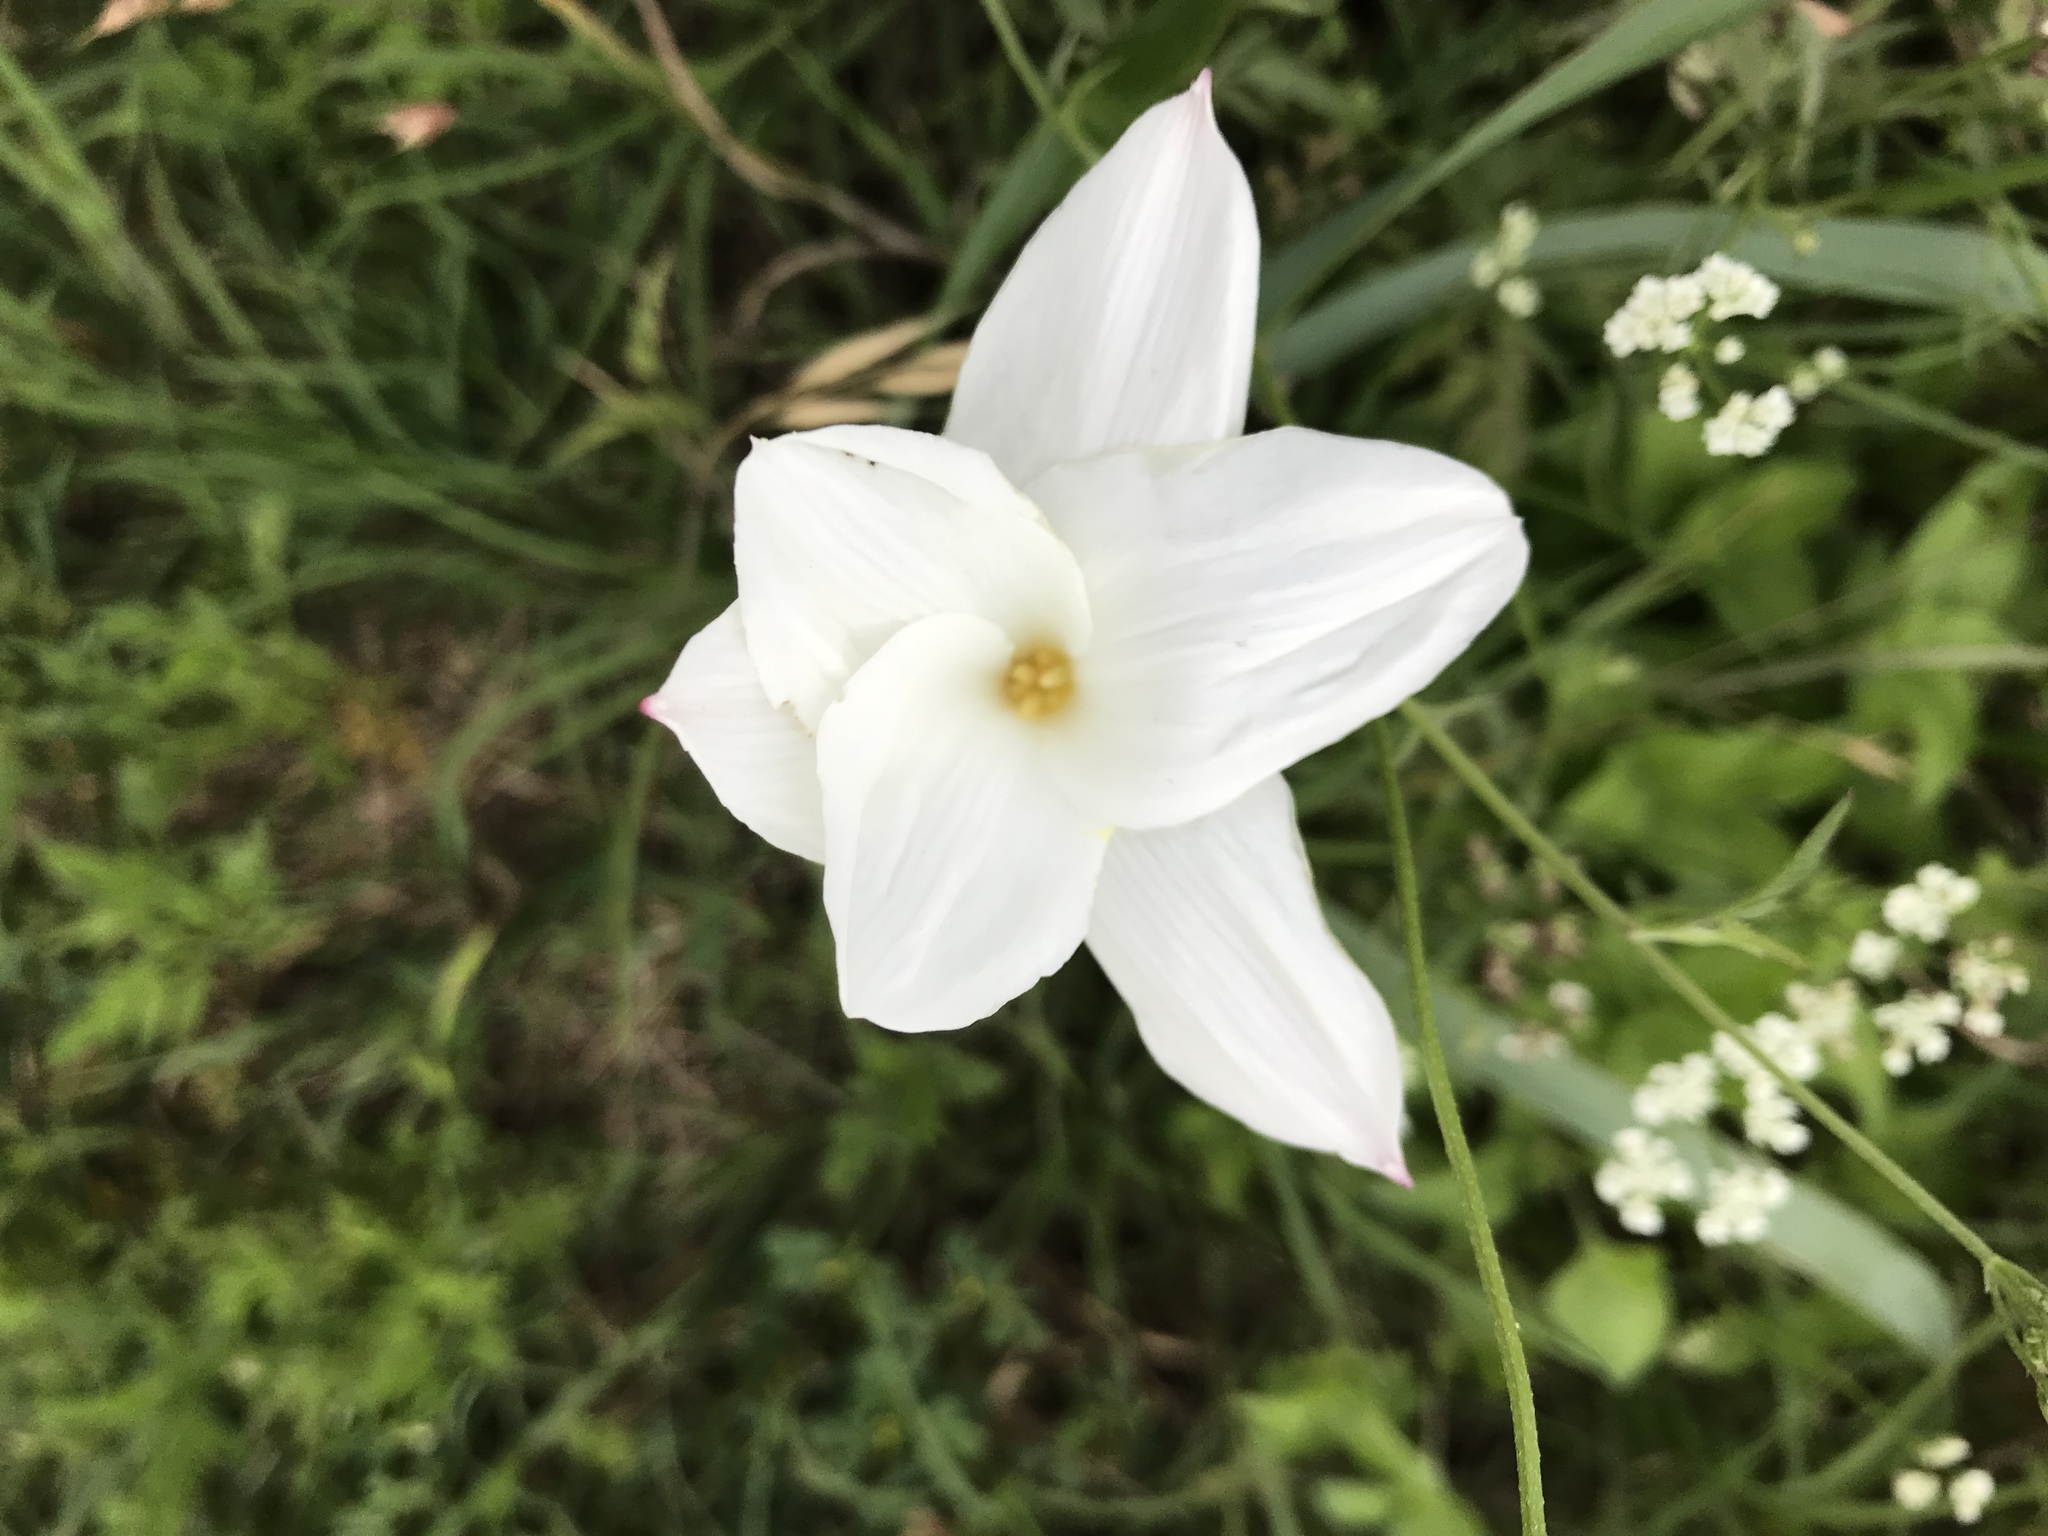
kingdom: Plantae
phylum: Tracheophyta
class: Liliopsida
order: Asparagales
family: Amaryllidaceae
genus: Zephyranthes
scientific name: Zephyranthes drummondii
